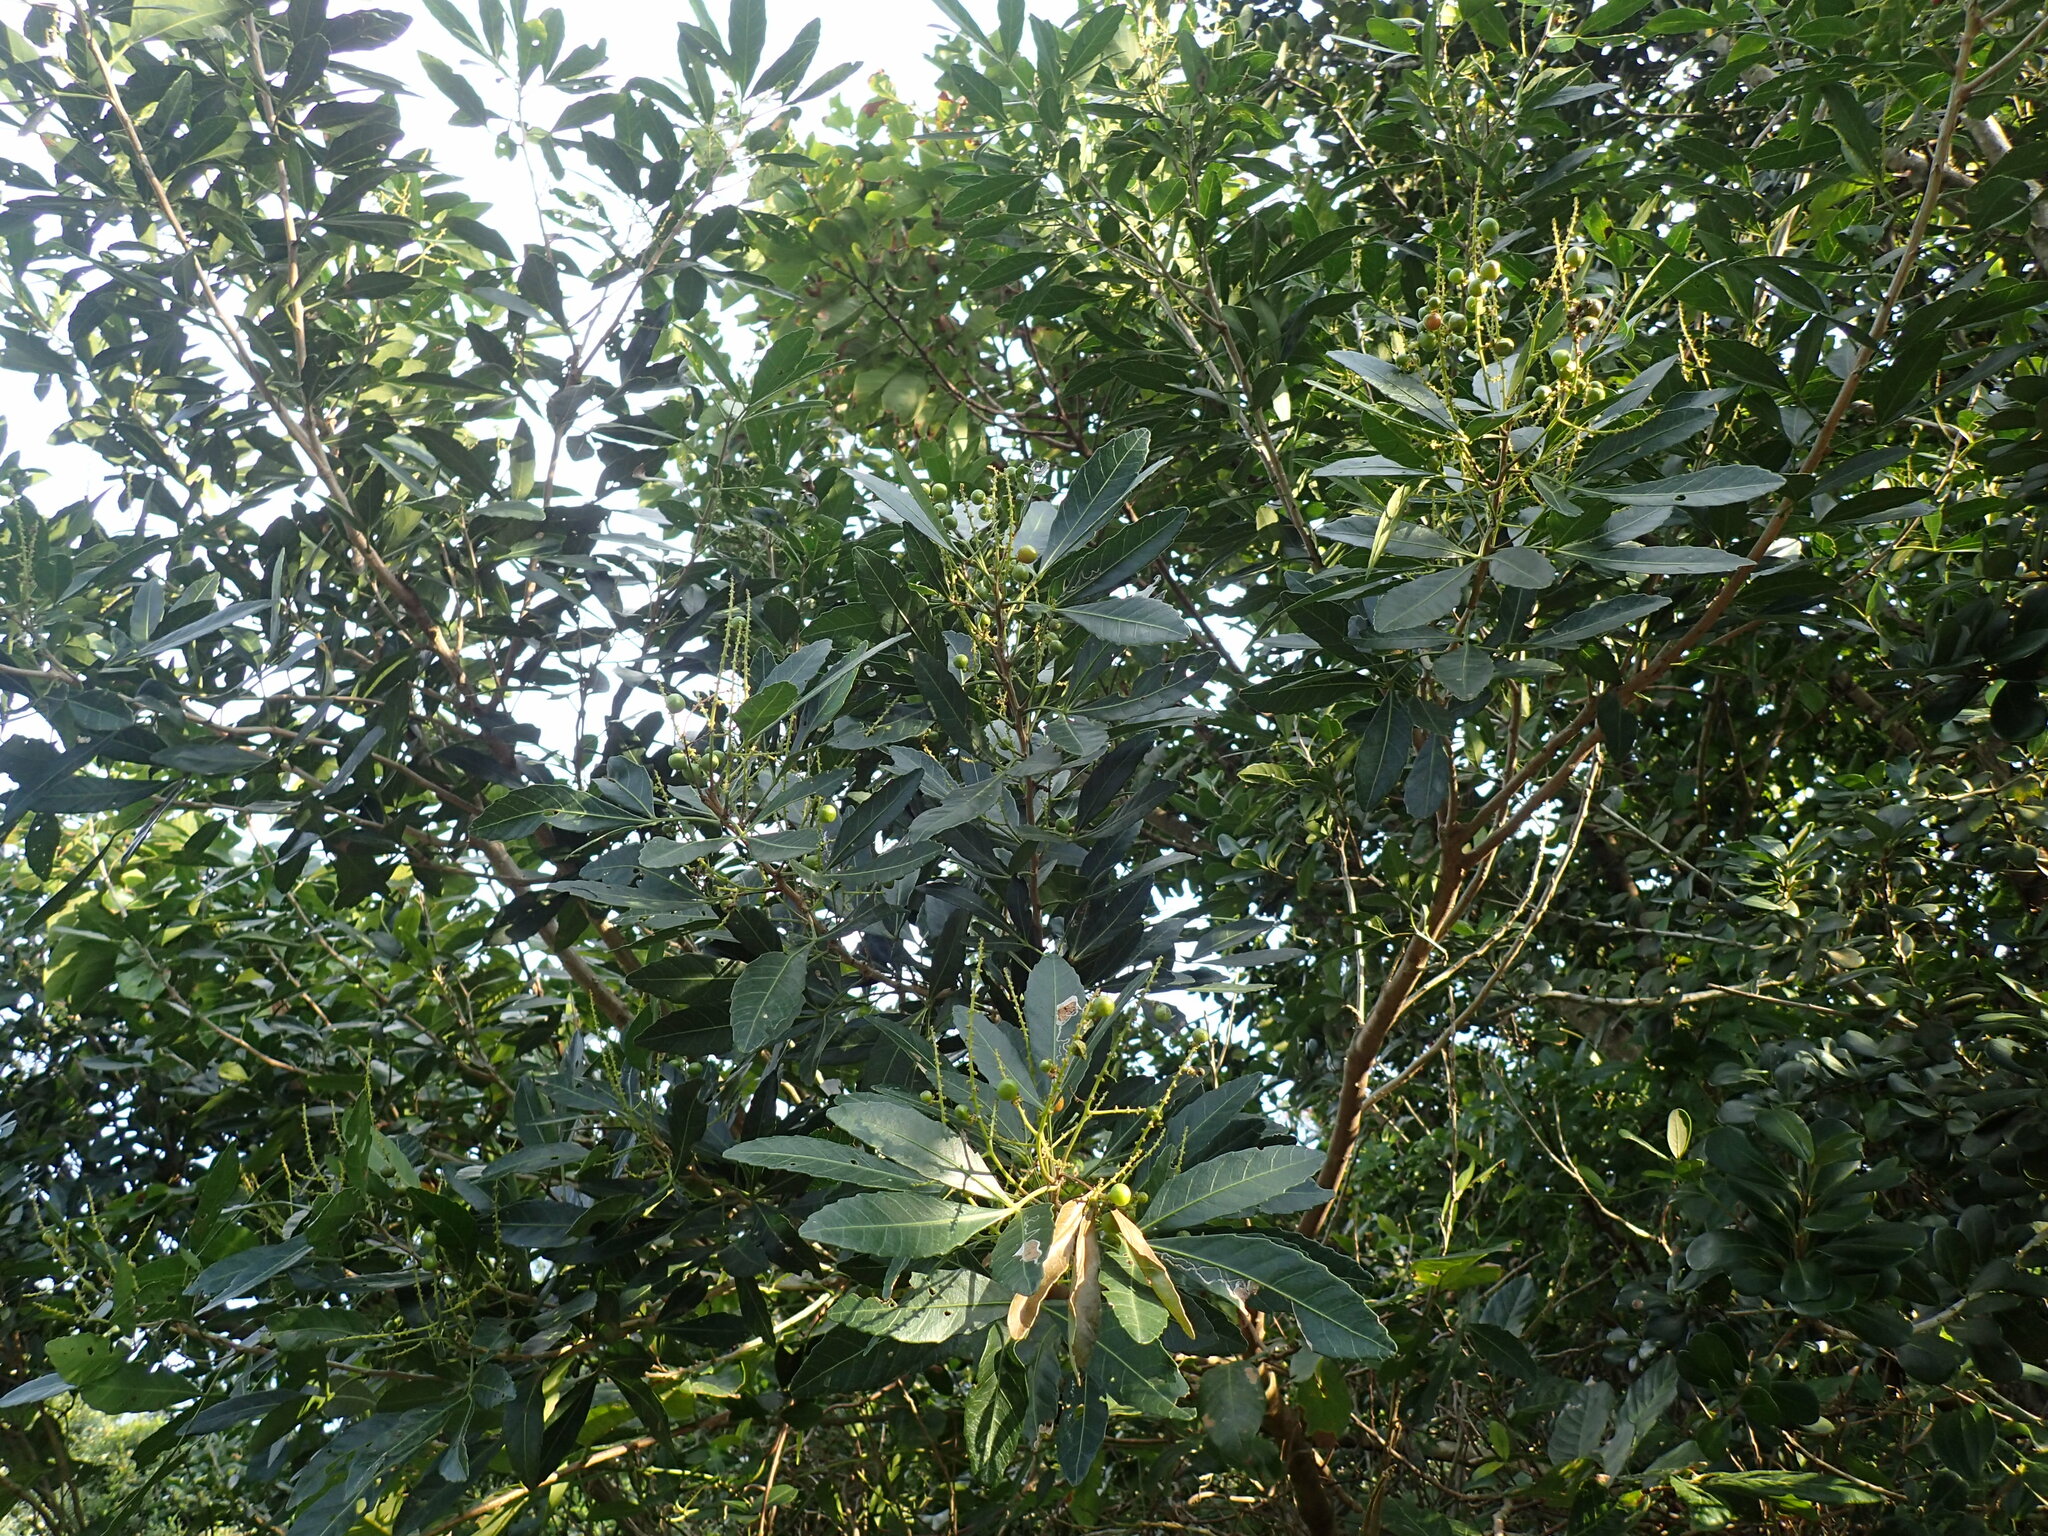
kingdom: Plantae
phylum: Tracheophyta
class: Magnoliopsida
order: Sapindales
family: Sapindaceae
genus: Allophylus
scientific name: Allophylus natalensis
